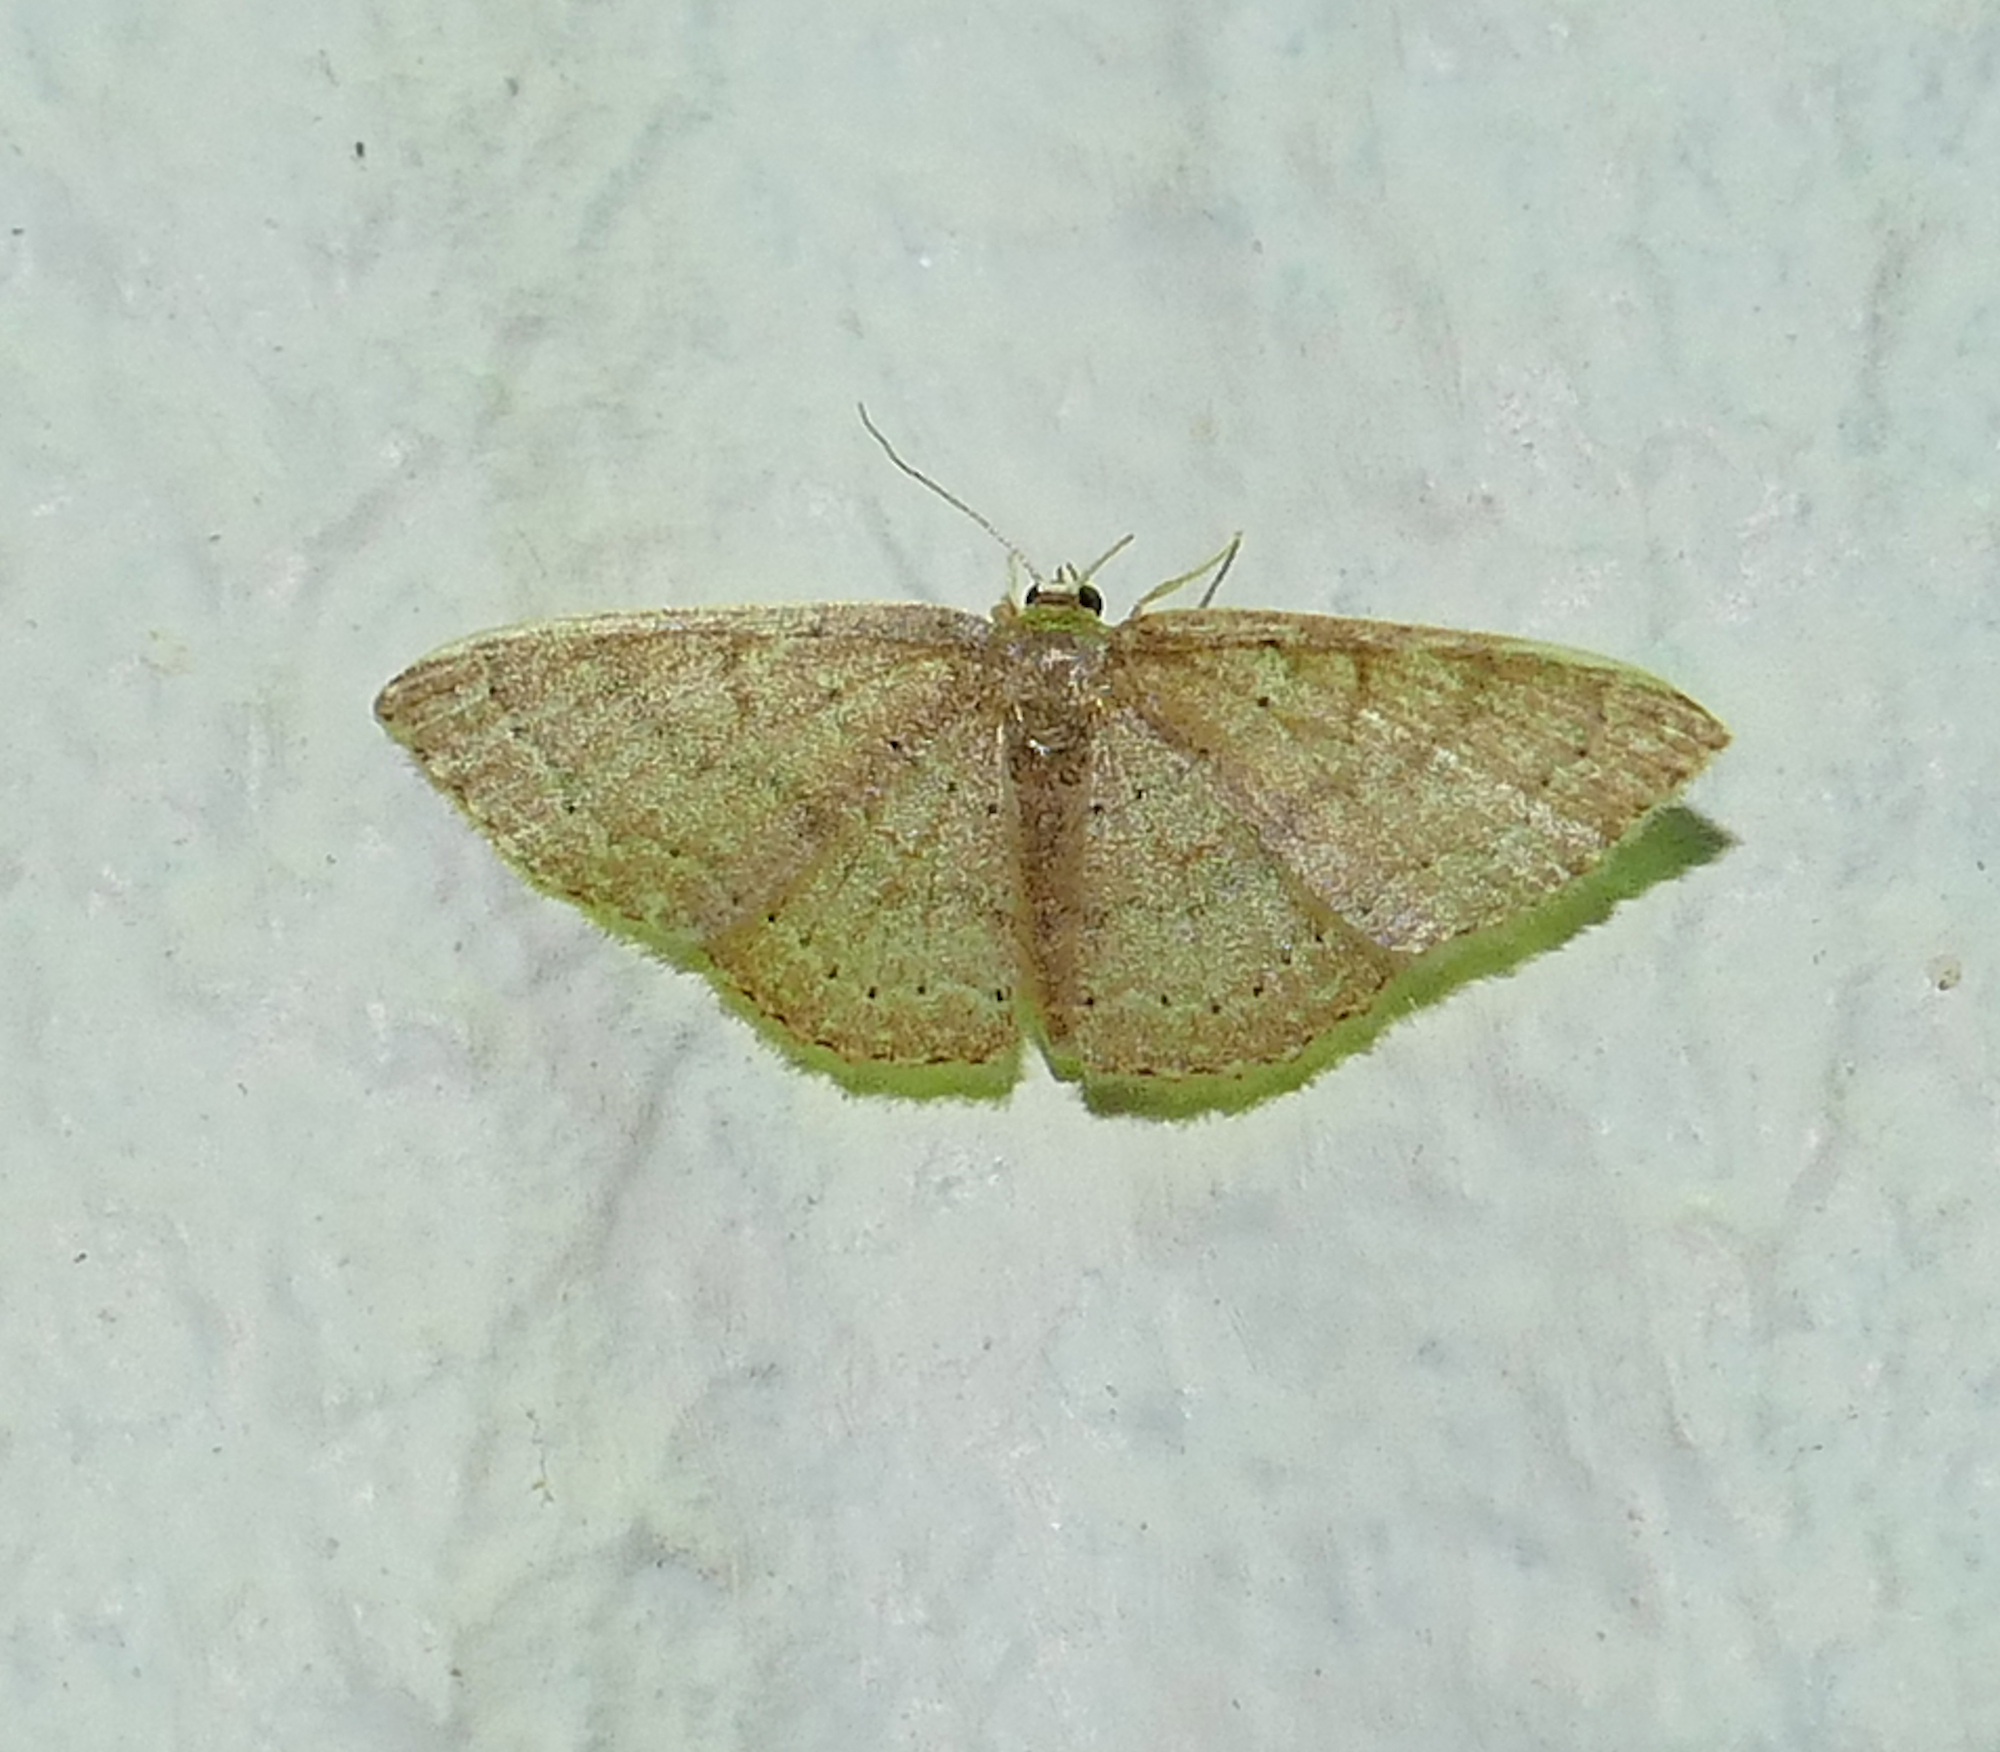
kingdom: Animalia
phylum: Arthropoda
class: Insecta
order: Lepidoptera
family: Geometridae
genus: Pleuroprucha
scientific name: Pleuroprucha insulsaria
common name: Common tan wave
